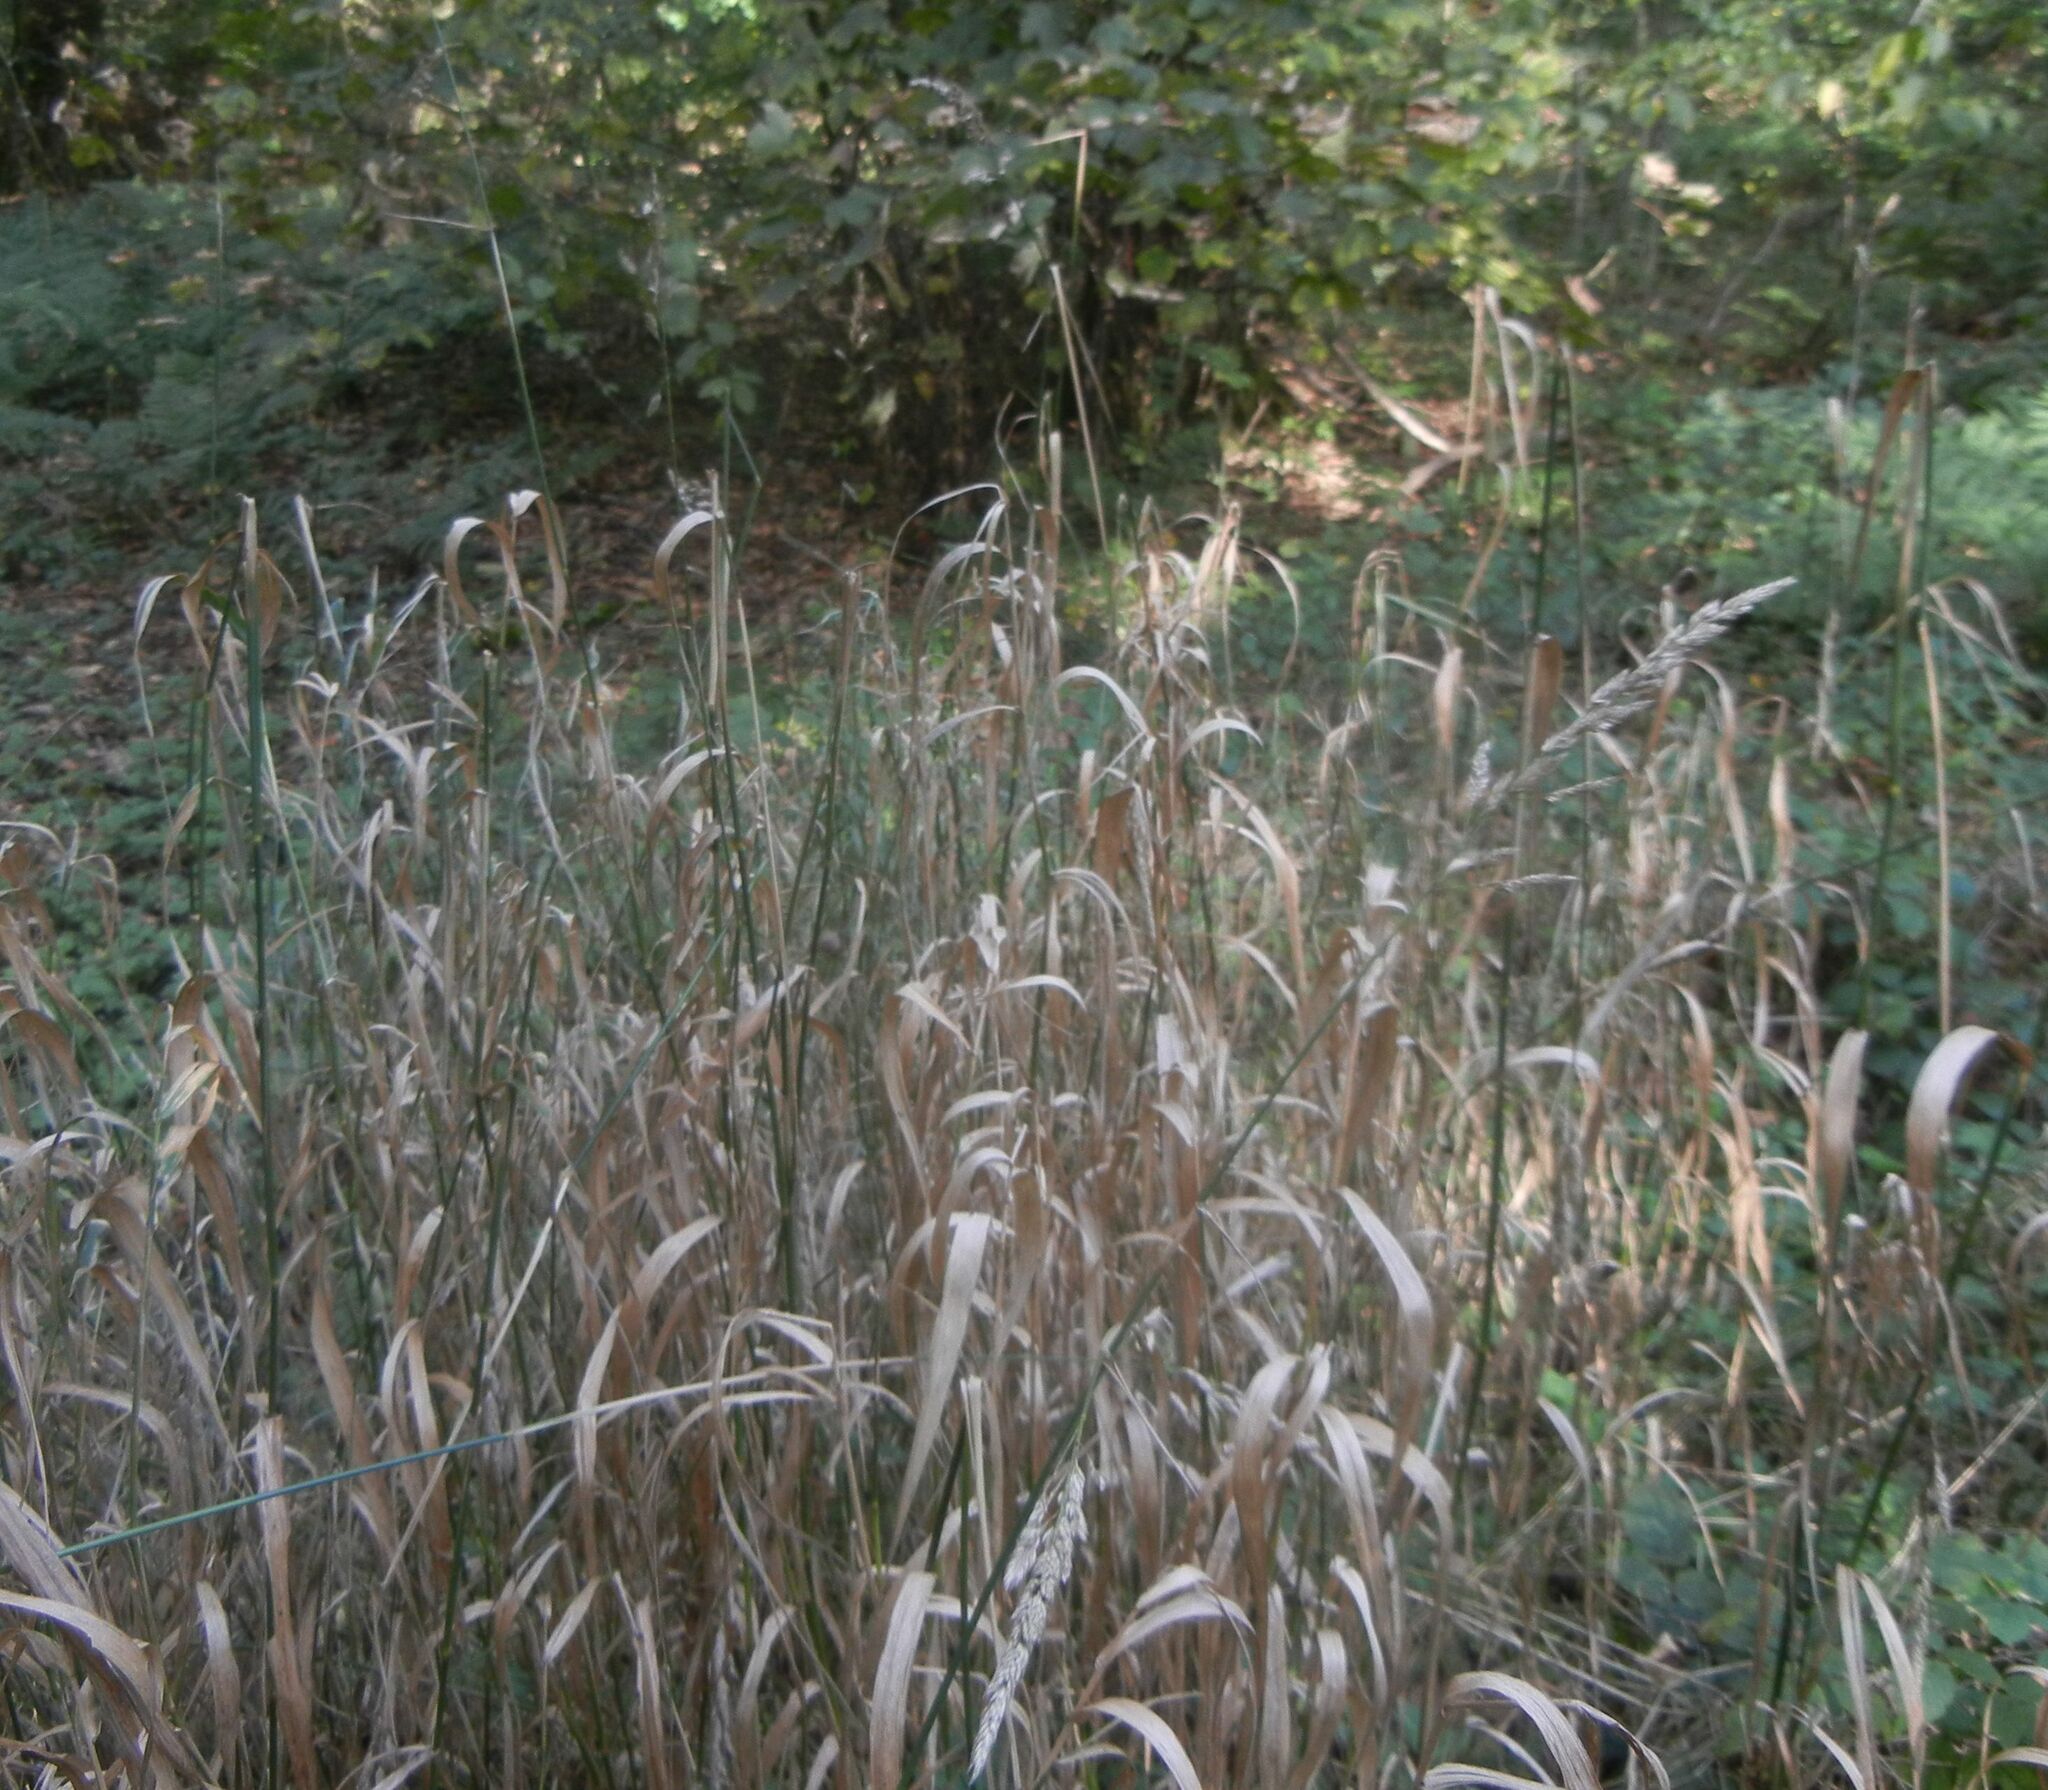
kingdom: Plantae
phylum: Tracheophyta
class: Liliopsida
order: Poales
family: Poaceae
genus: Phalaris
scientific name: Phalaris arundinacea
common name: Reed canary-grass
